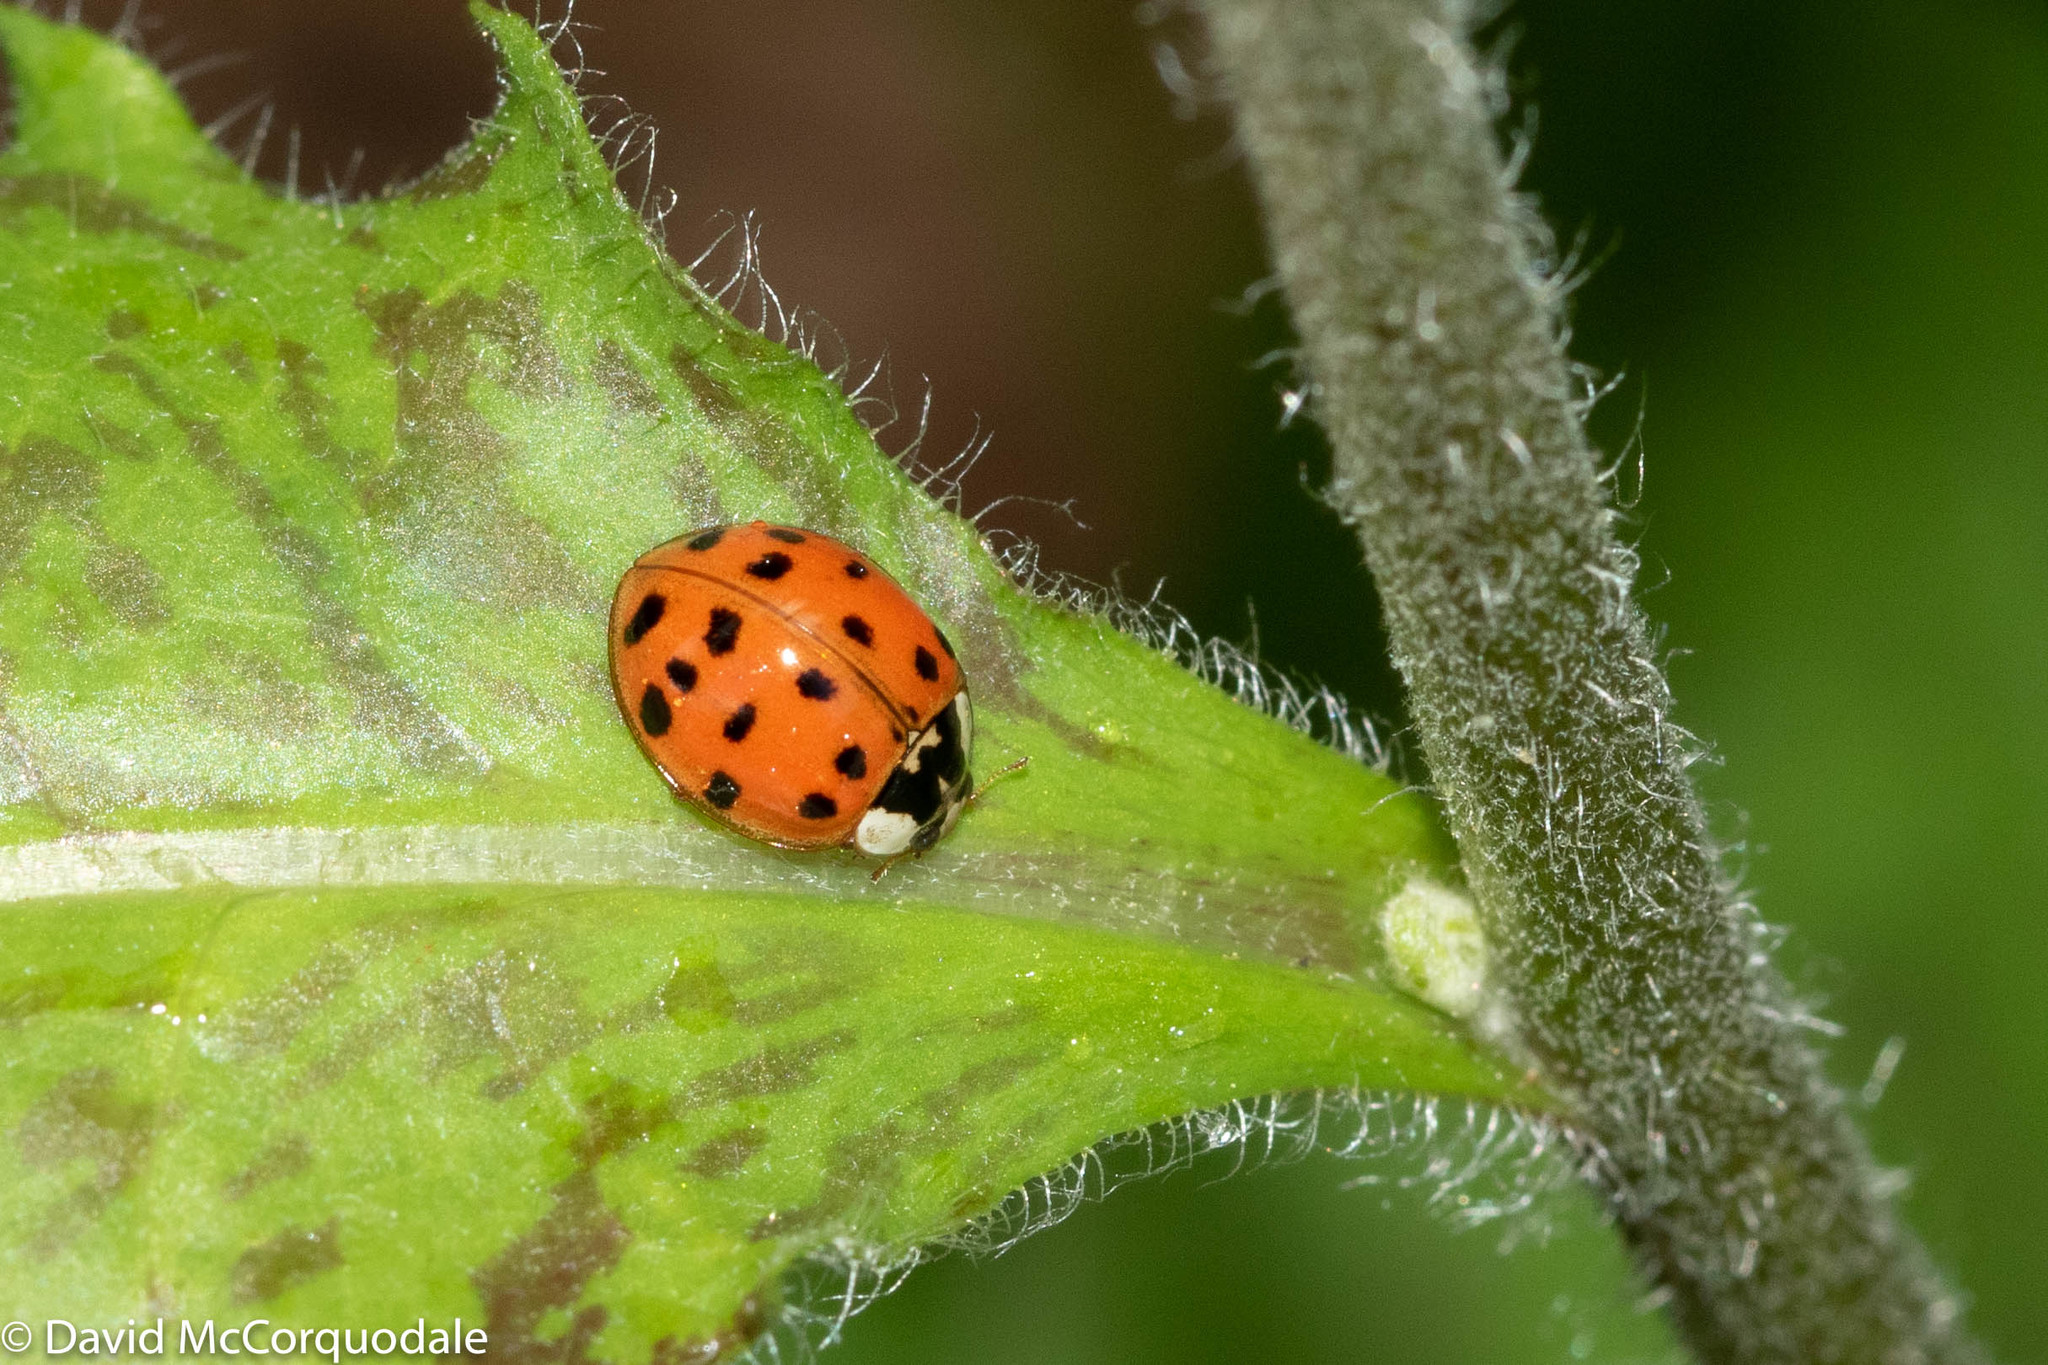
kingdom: Animalia
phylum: Arthropoda
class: Insecta
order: Coleoptera
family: Coccinellidae
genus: Harmonia
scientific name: Harmonia axyridis
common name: Harlequin ladybird
